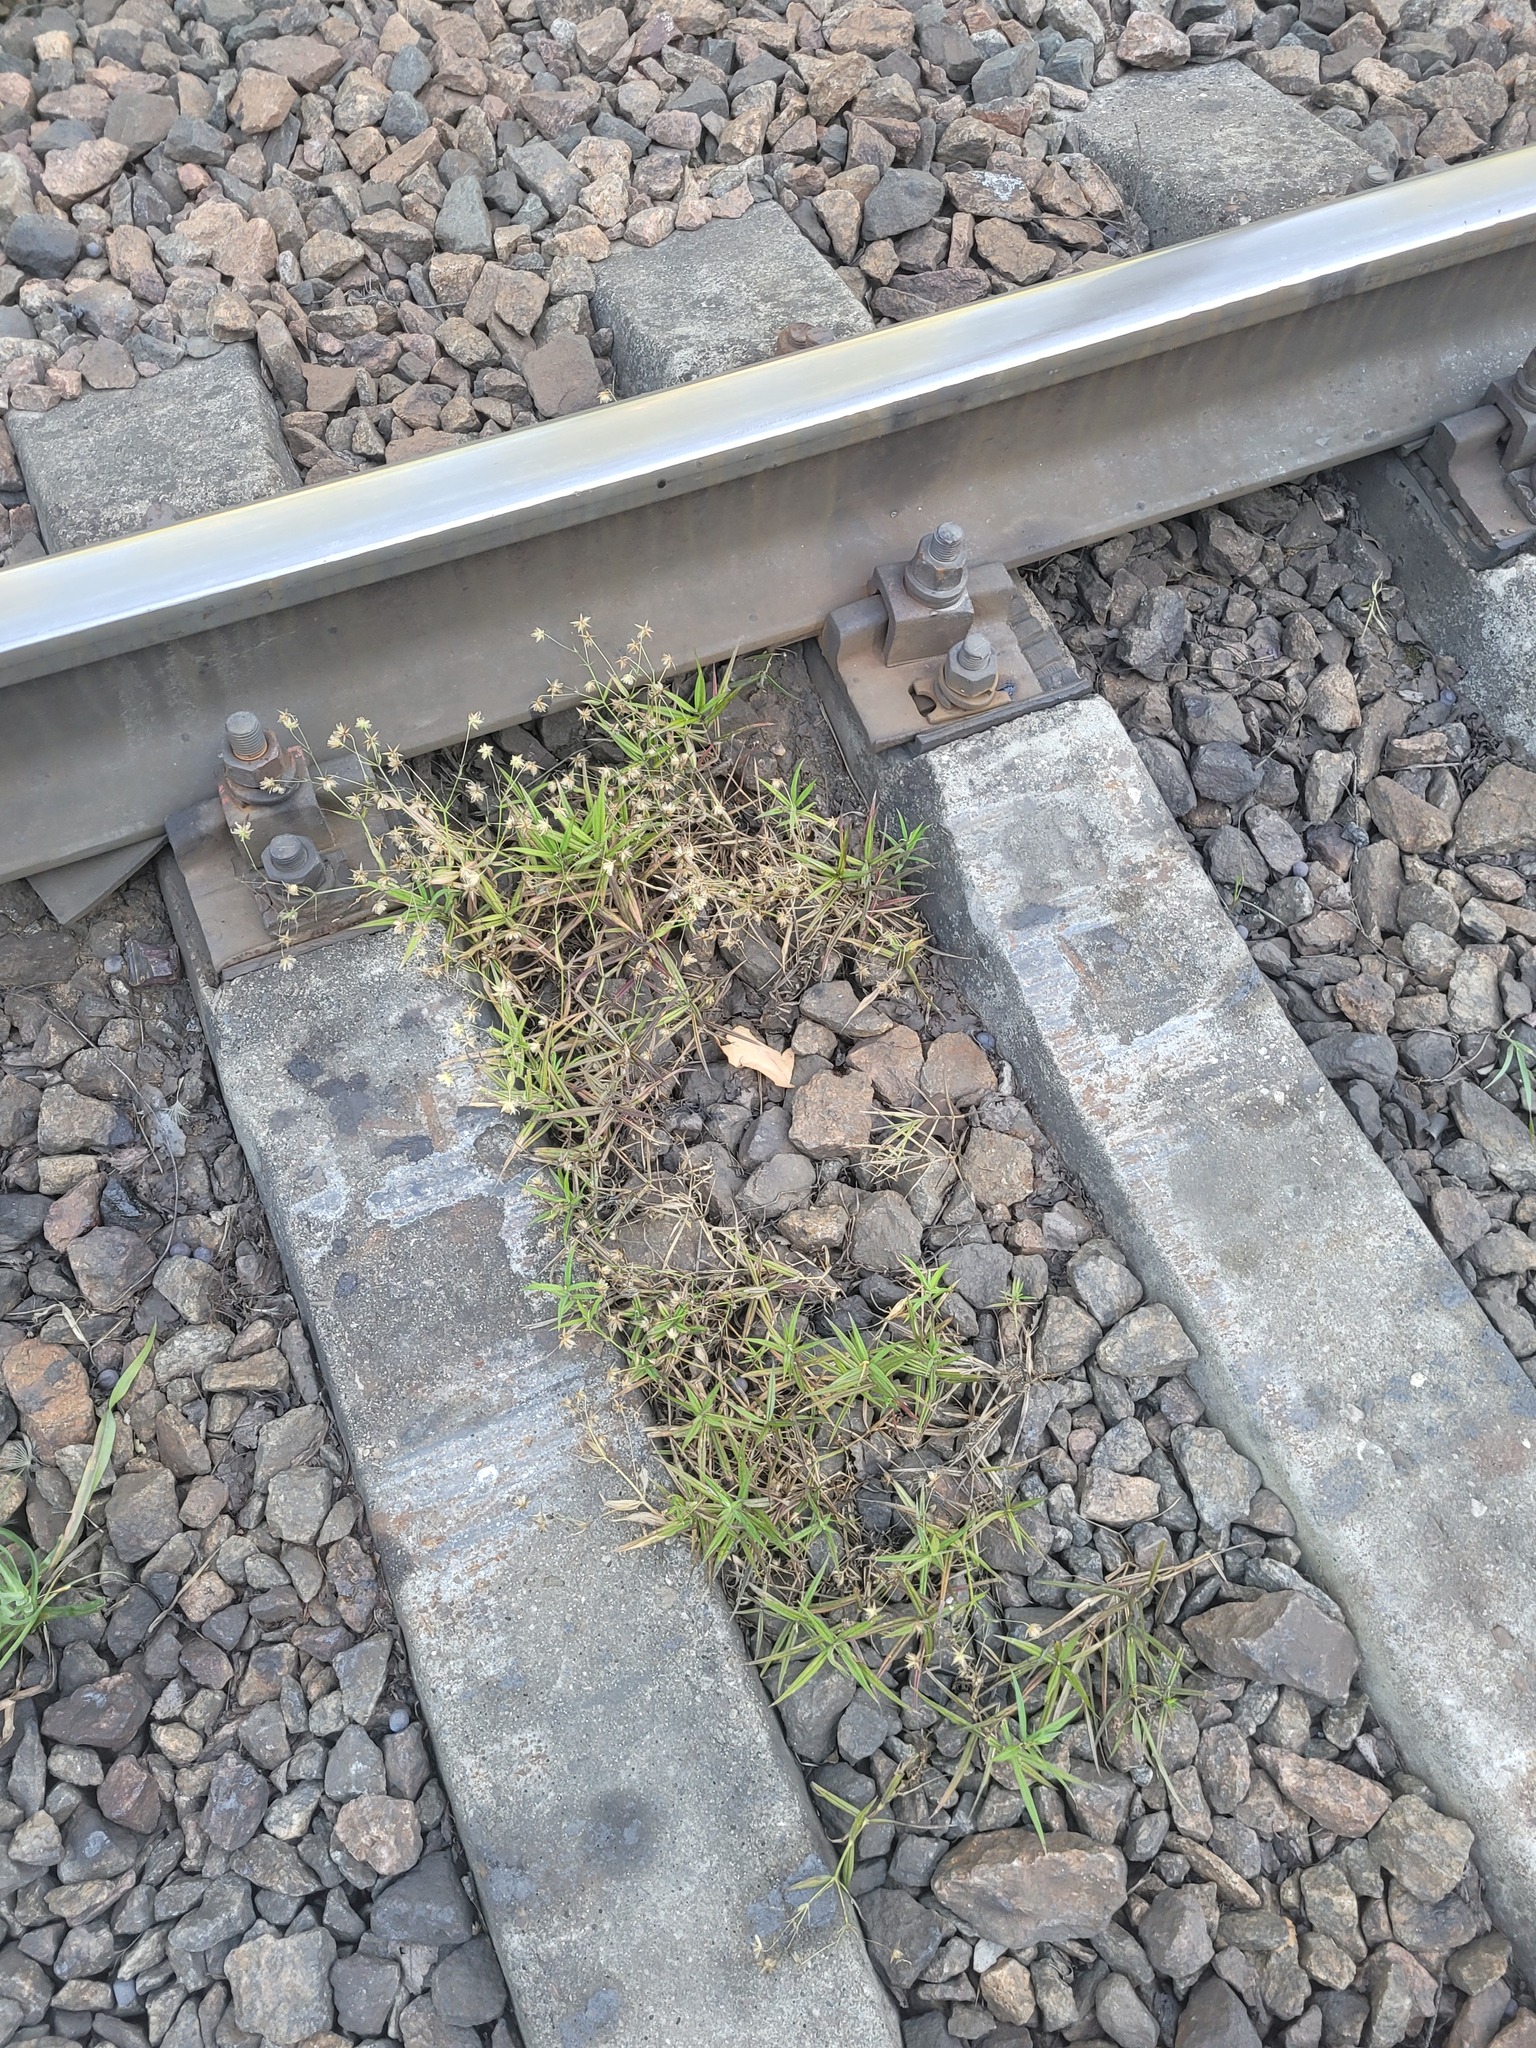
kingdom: Plantae
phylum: Tracheophyta
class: Magnoliopsida
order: Caryophyllales
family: Caryophyllaceae
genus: Rabelera
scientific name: Rabelera holostea
